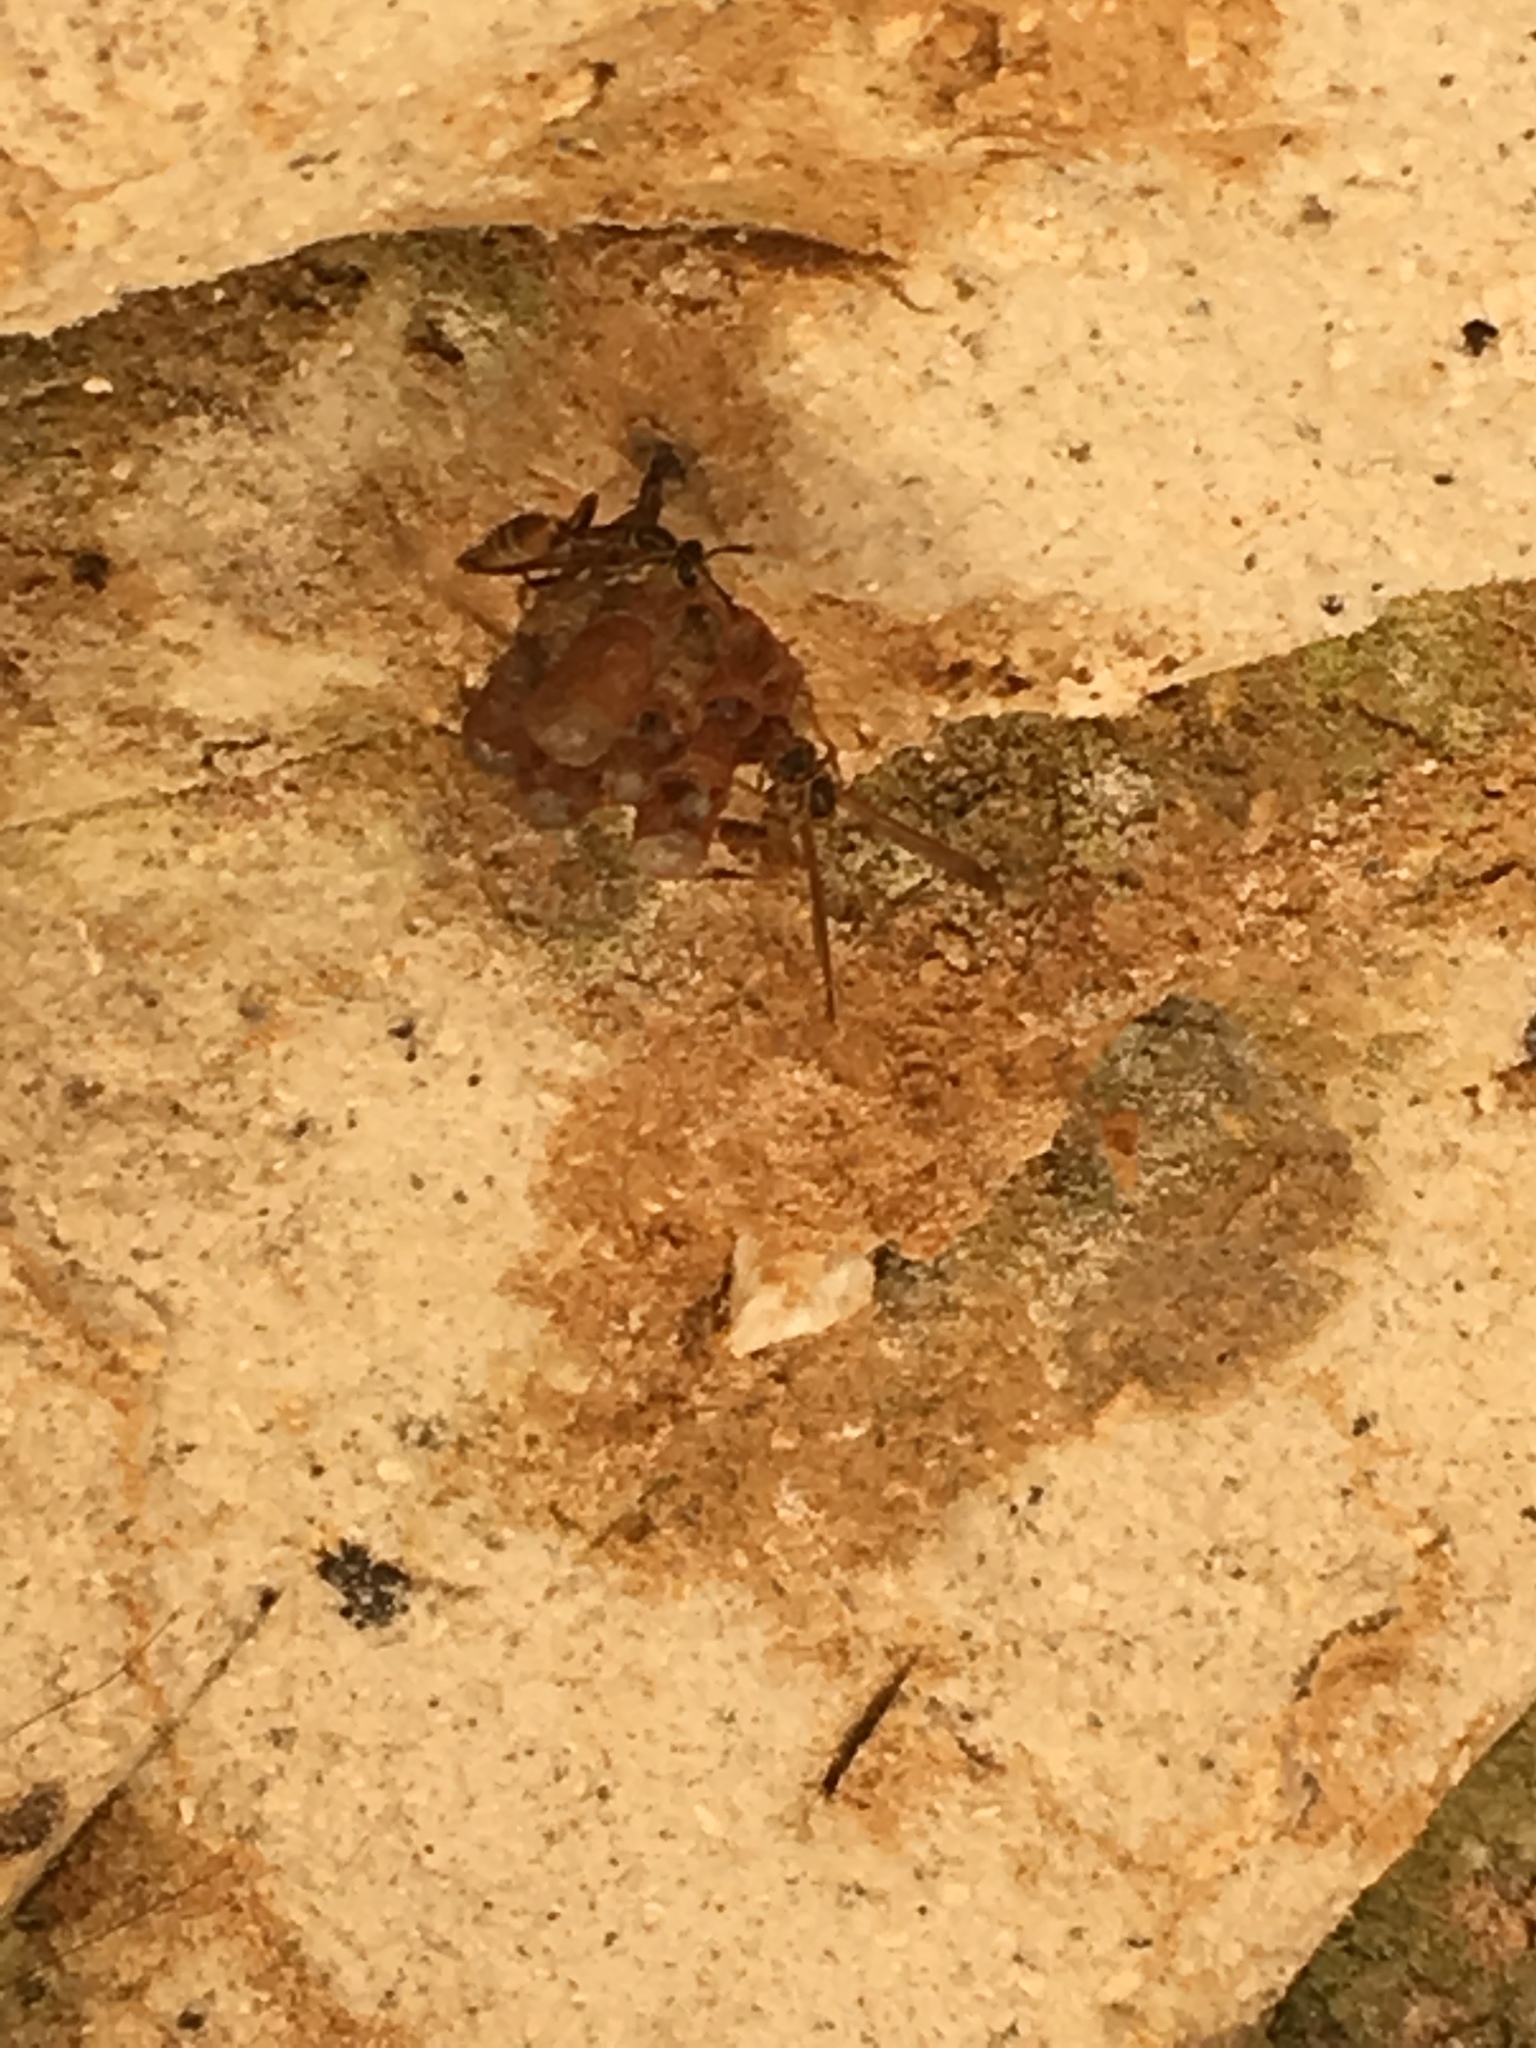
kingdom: Animalia
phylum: Arthropoda
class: Insecta
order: Hymenoptera
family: Vespidae
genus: Mischocyttarus
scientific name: Mischocyttarus angulatus
